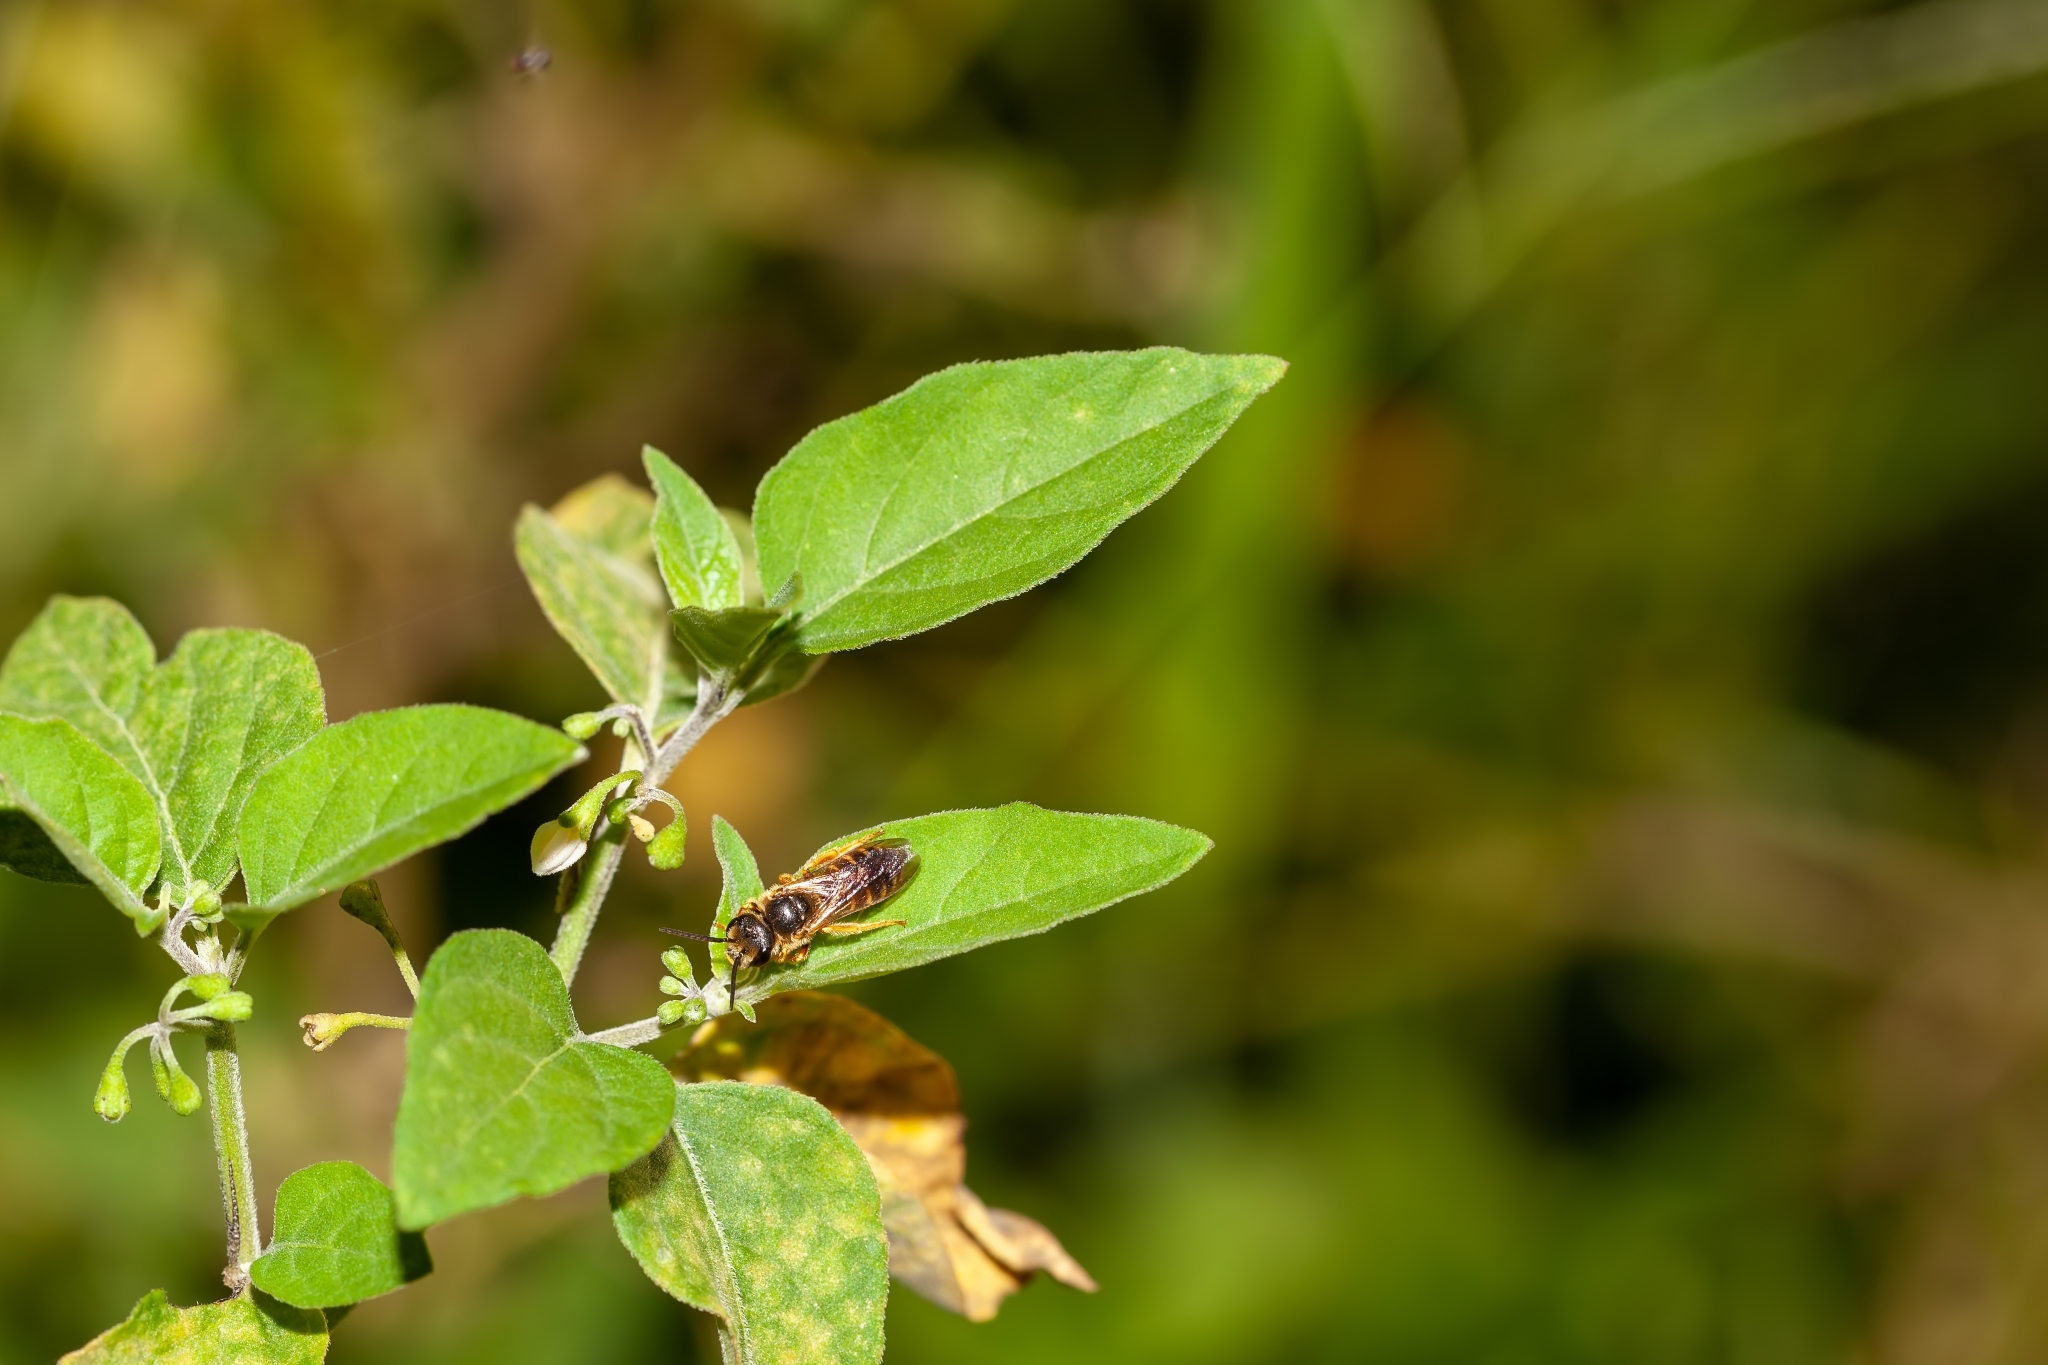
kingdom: Animalia
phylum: Arthropoda
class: Insecta
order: Hymenoptera
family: Halictidae
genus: Halictus
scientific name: Halictus poeyi
